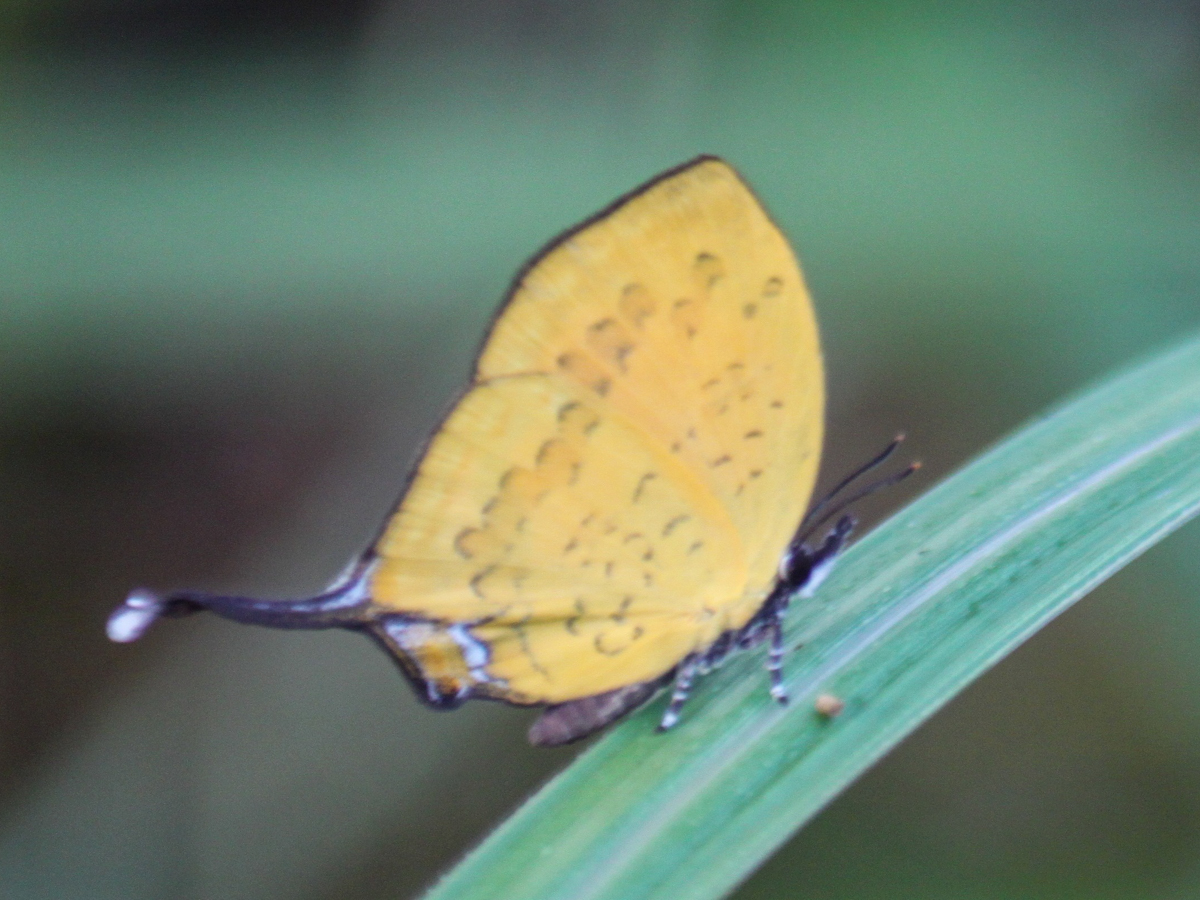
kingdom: Animalia
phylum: Arthropoda
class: Insecta
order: Lepidoptera
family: Lycaenidae
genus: Yasoda
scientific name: Yasoda tripunctata
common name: Branded yamfly
